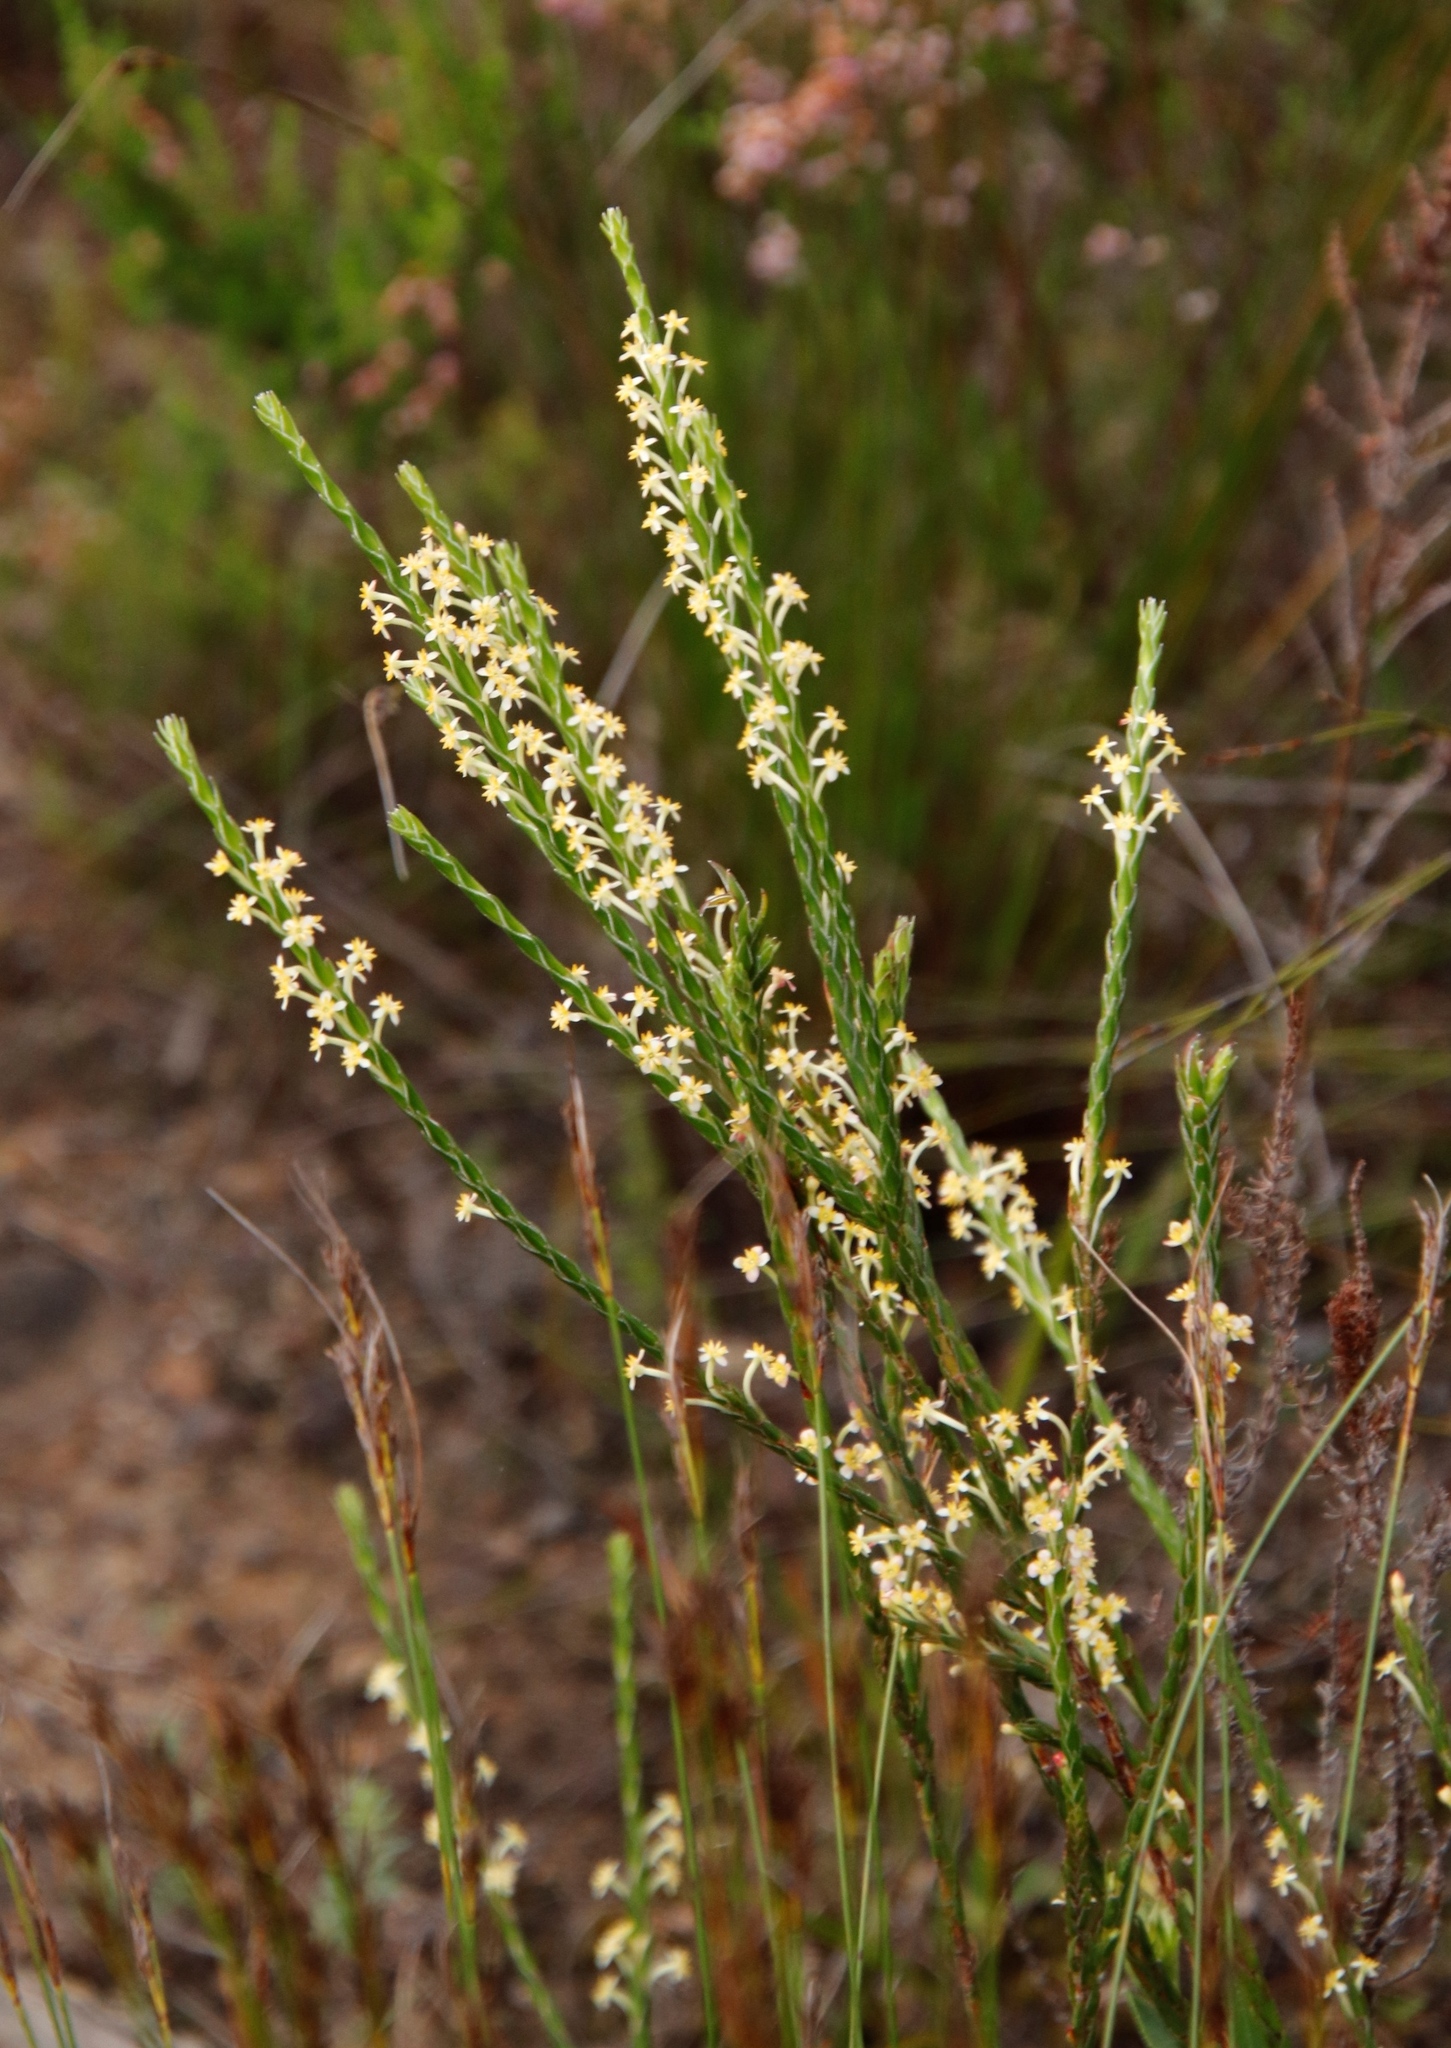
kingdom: Plantae
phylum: Tracheophyta
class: Magnoliopsida
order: Malvales
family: Thymelaeaceae
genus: Struthiola
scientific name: Struthiola ciliata
